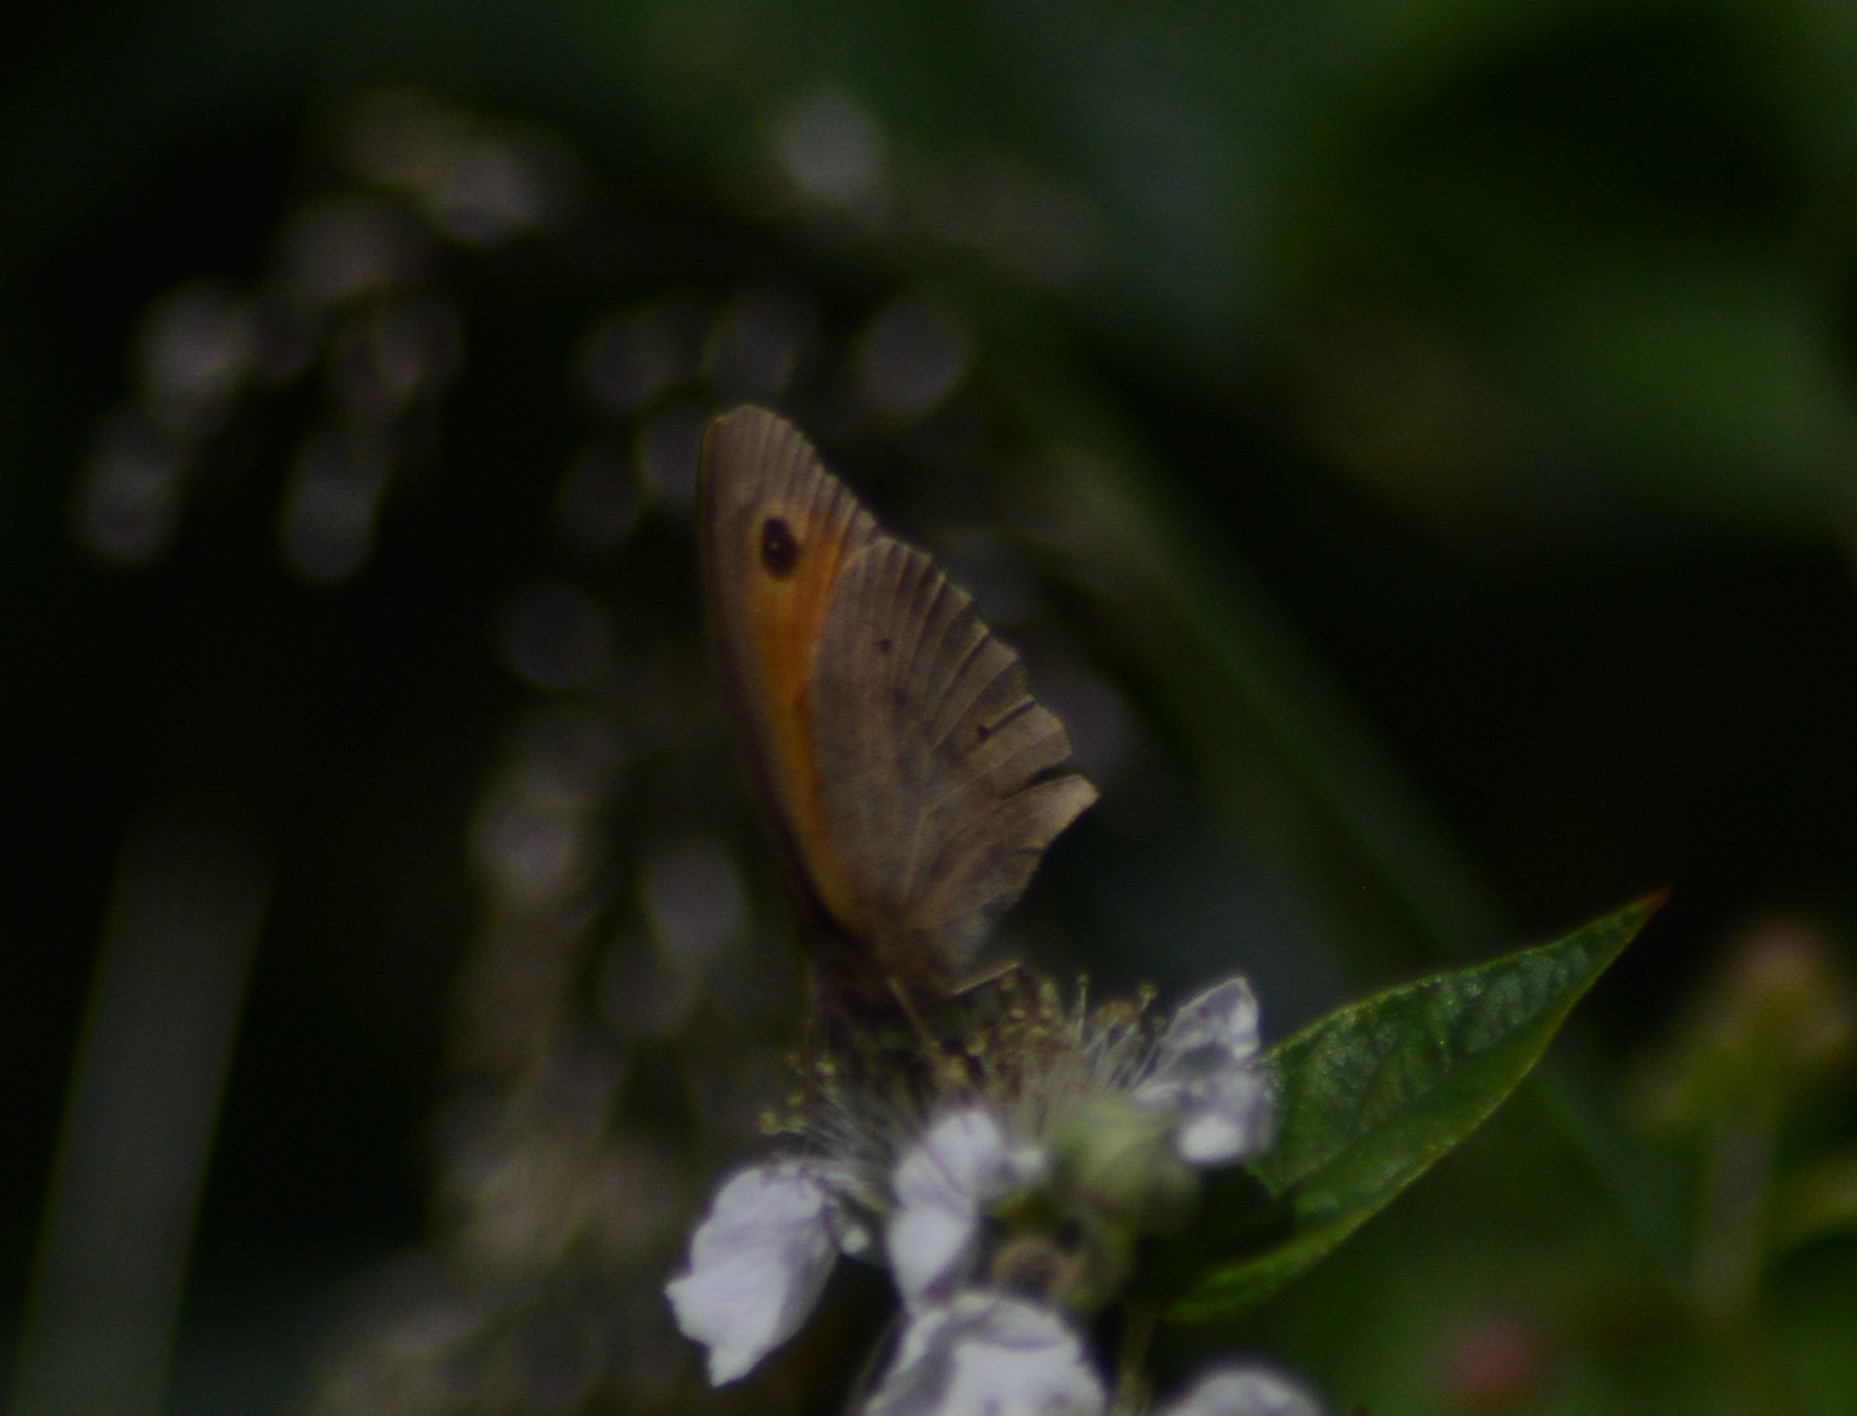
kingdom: Animalia
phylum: Arthropoda
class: Insecta
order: Lepidoptera
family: Nymphalidae
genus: Maniola
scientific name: Maniola jurtina
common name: Meadow brown
